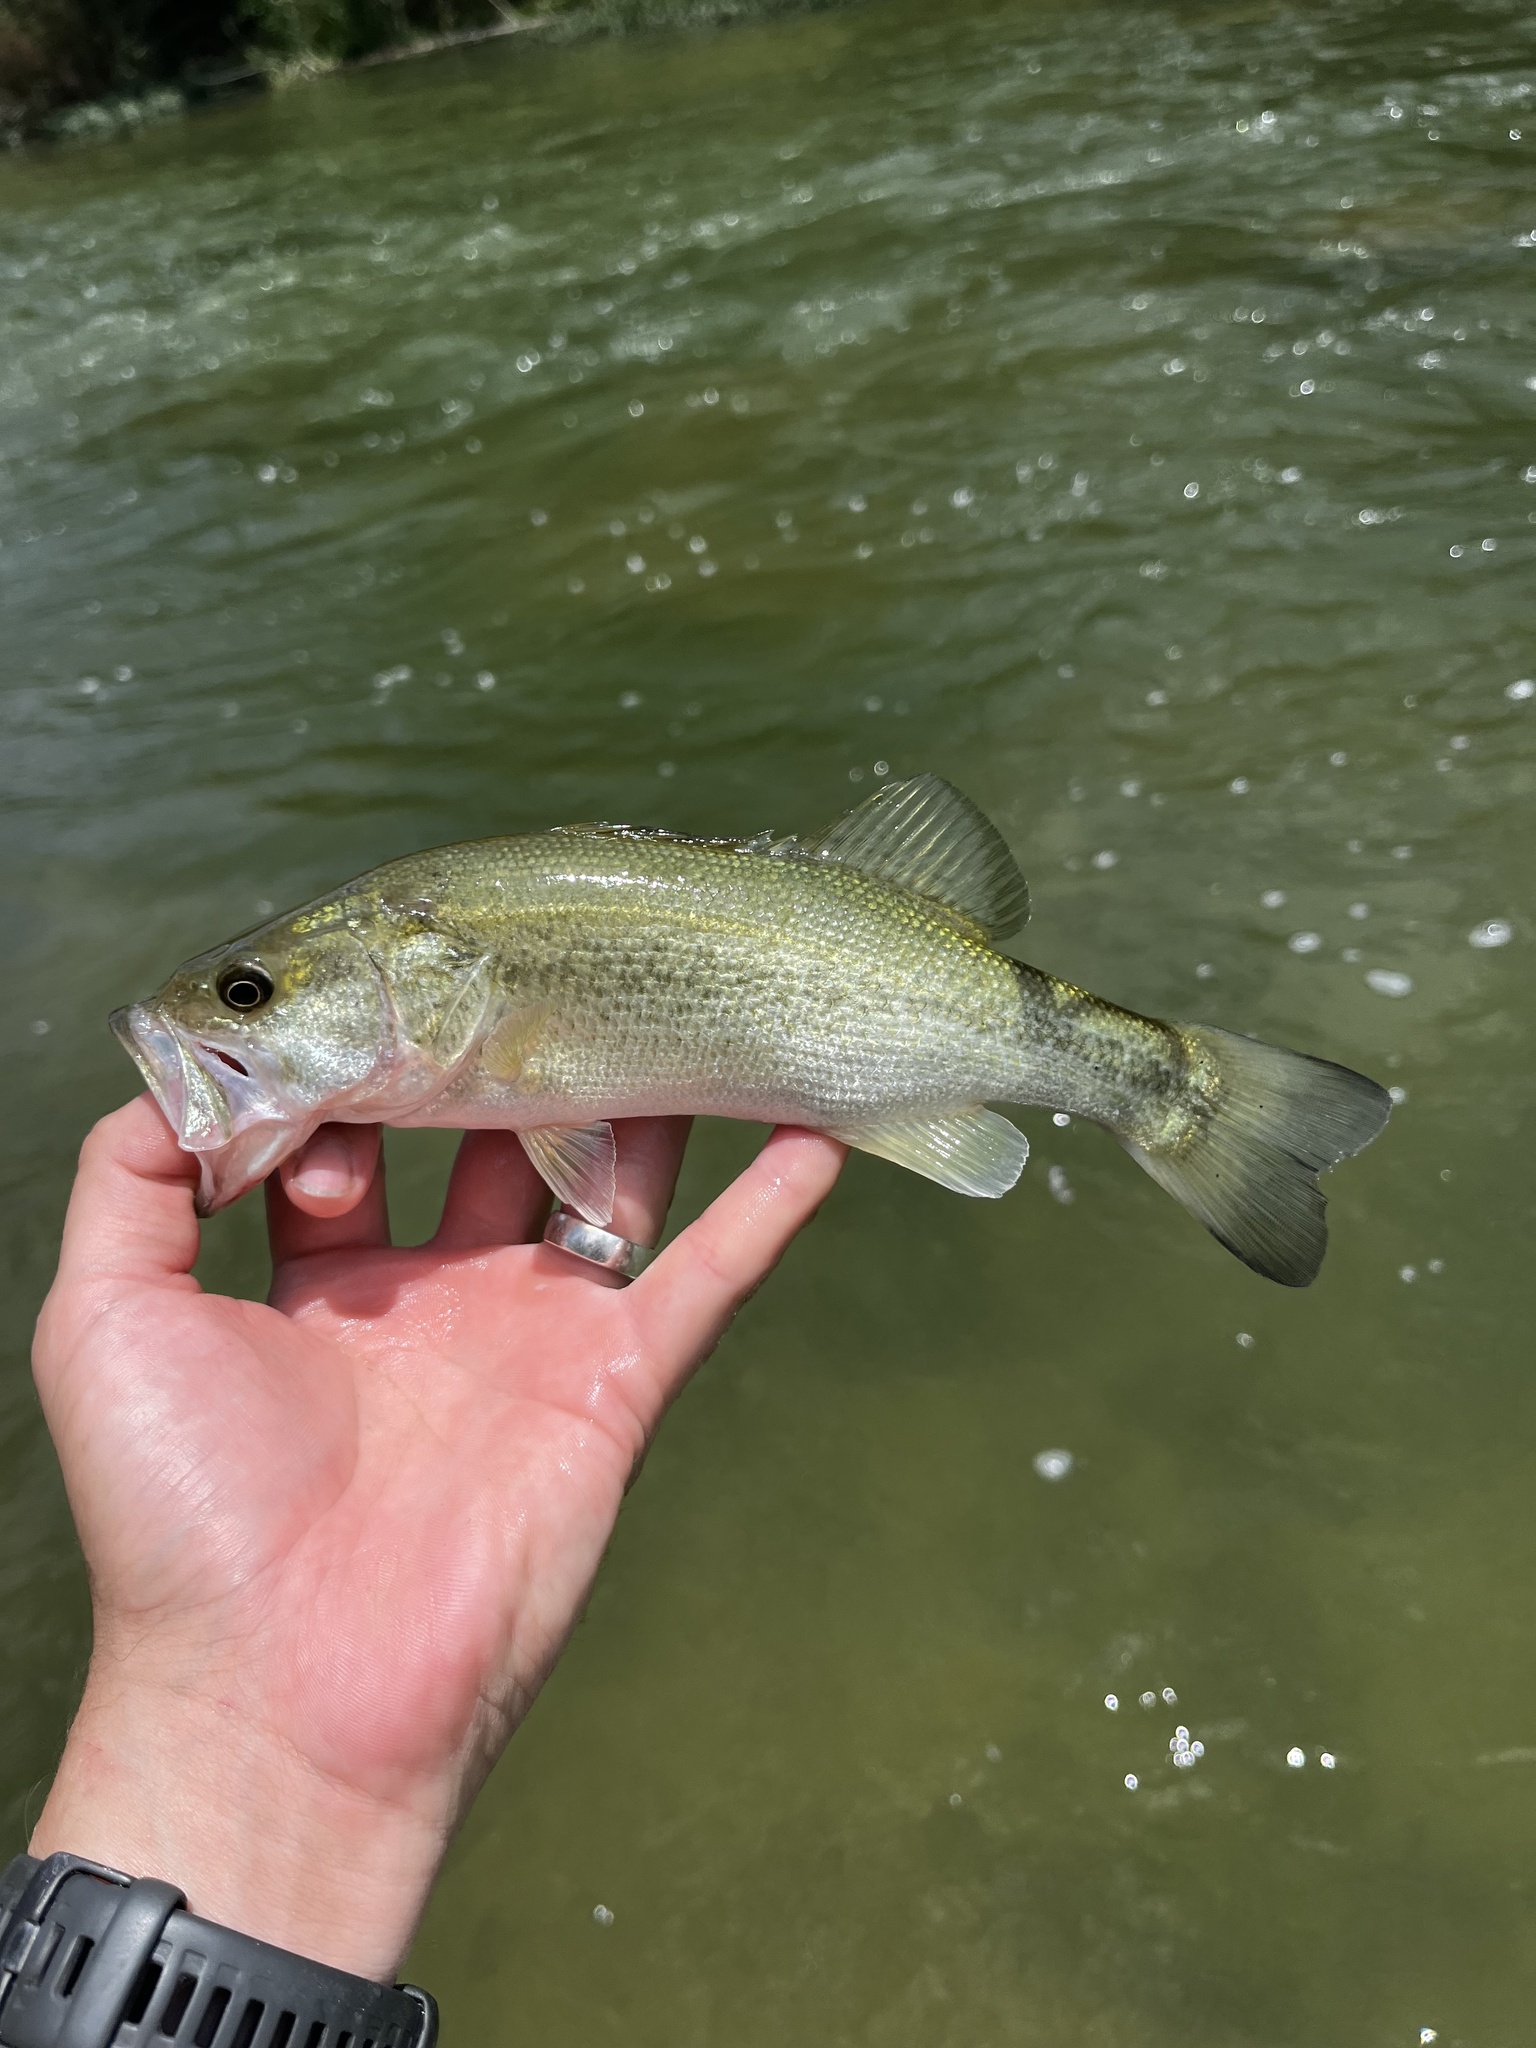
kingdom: Animalia
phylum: Chordata
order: Perciformes
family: Centrarchidae
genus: Micropterus
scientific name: Micropterus
